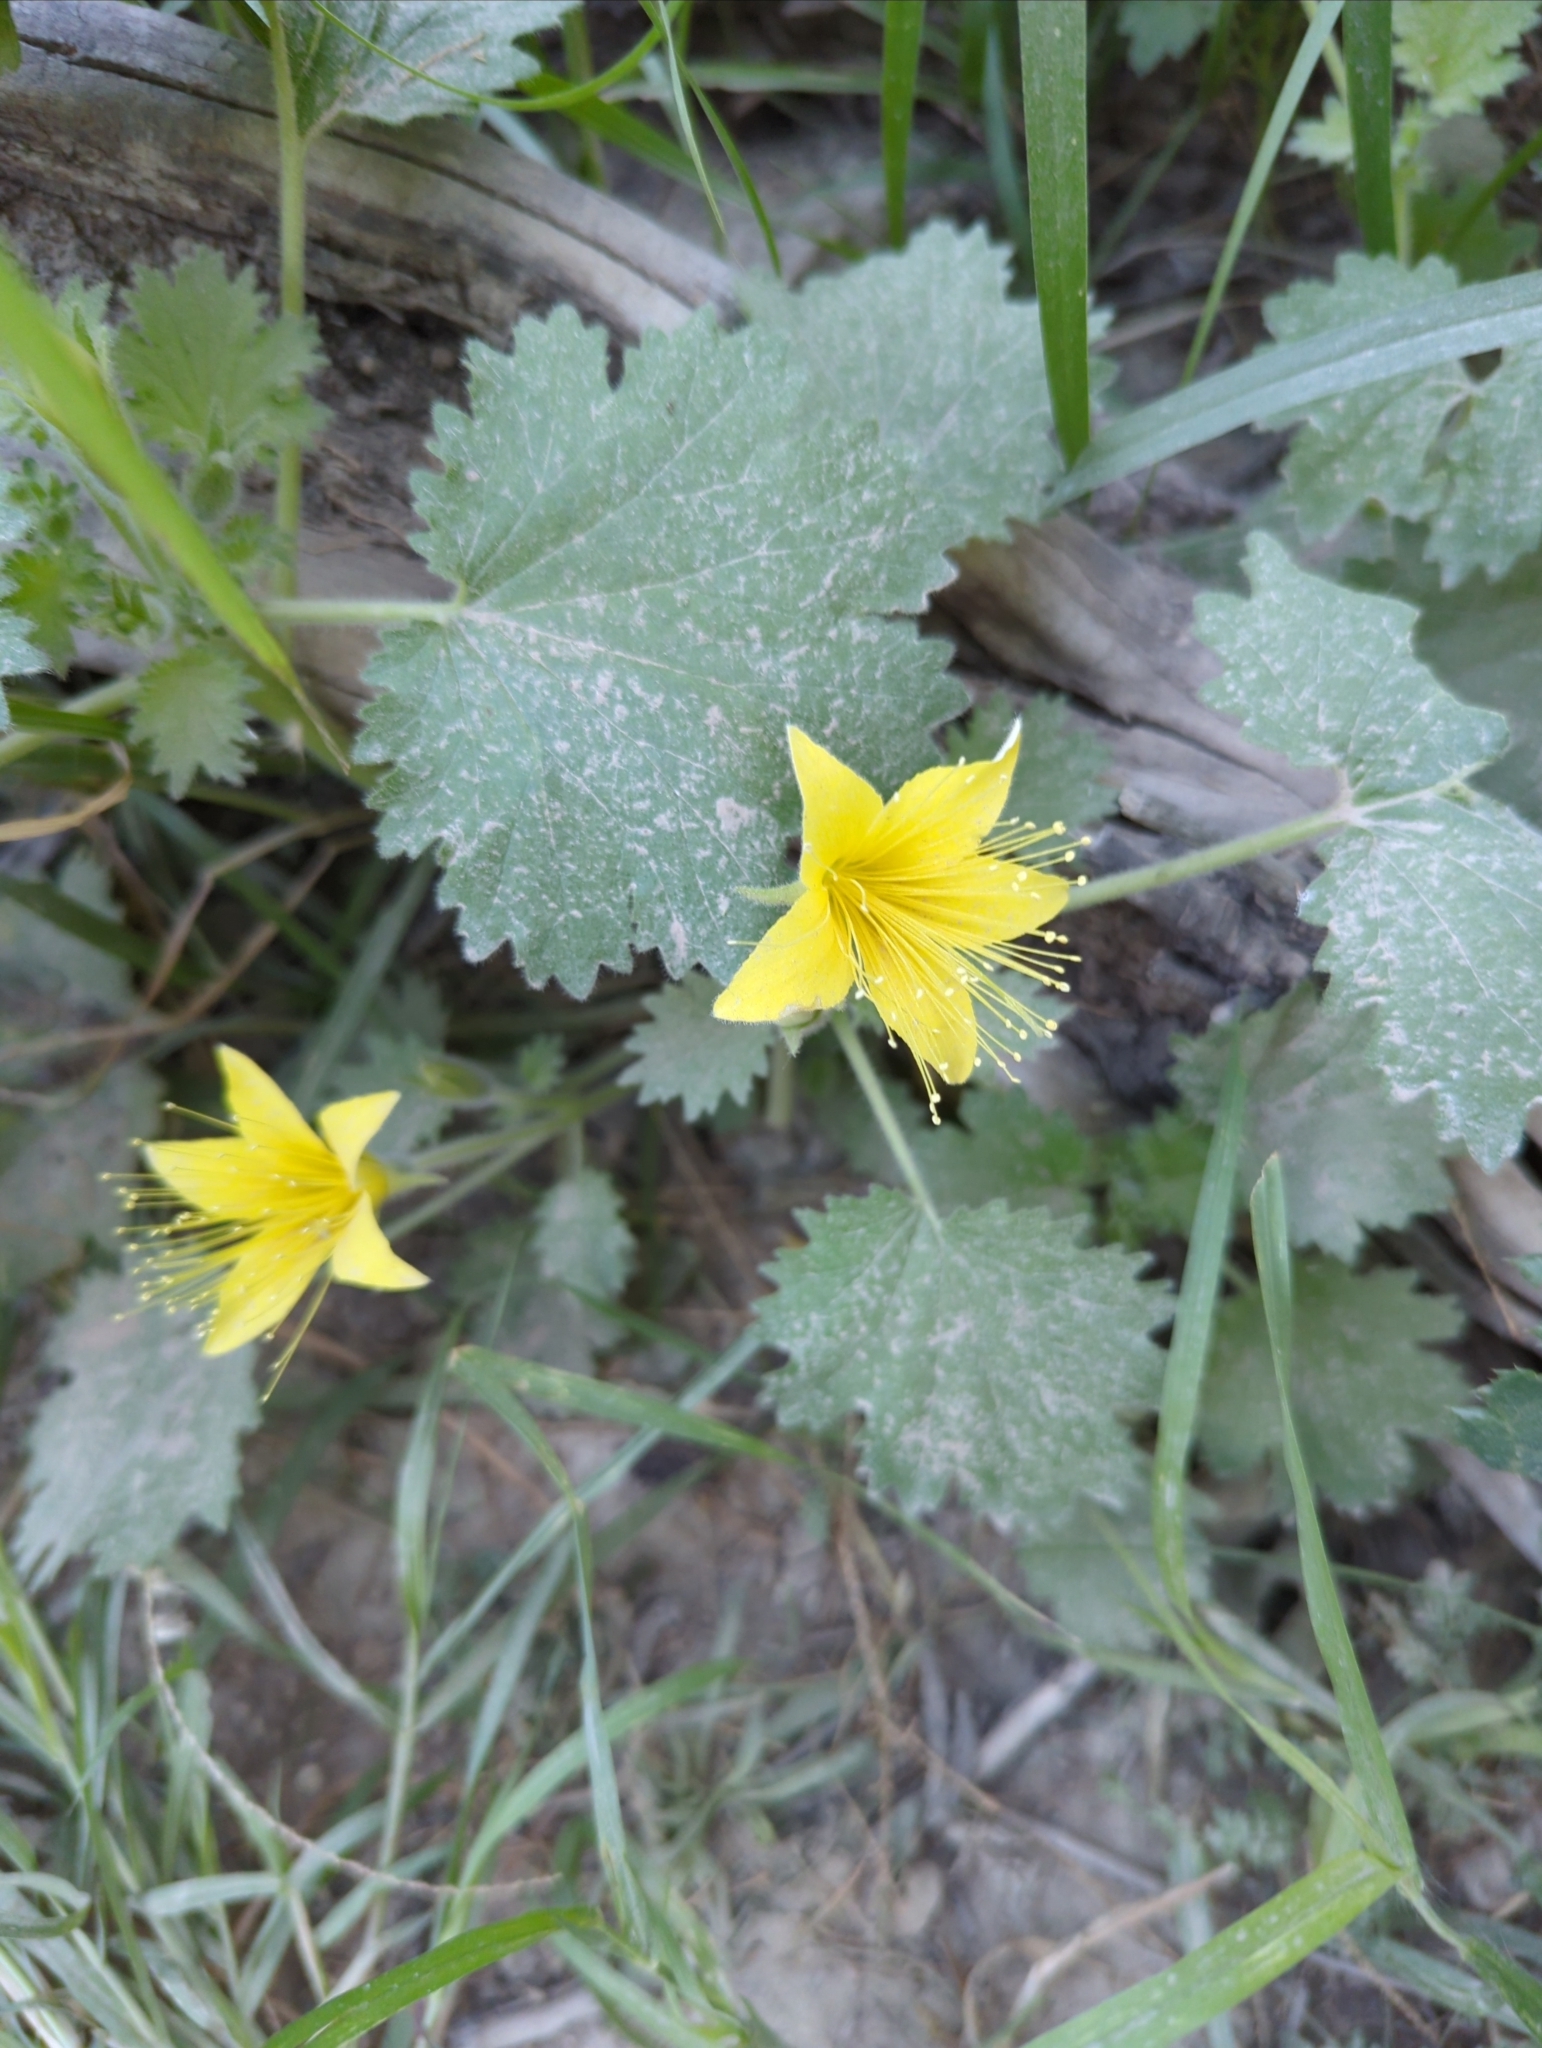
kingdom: Plantae
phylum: Tracheophyta
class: Magnoliopsida
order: Cornales
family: Loasaceae
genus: Eucnide
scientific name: Eucnide bartonioides
